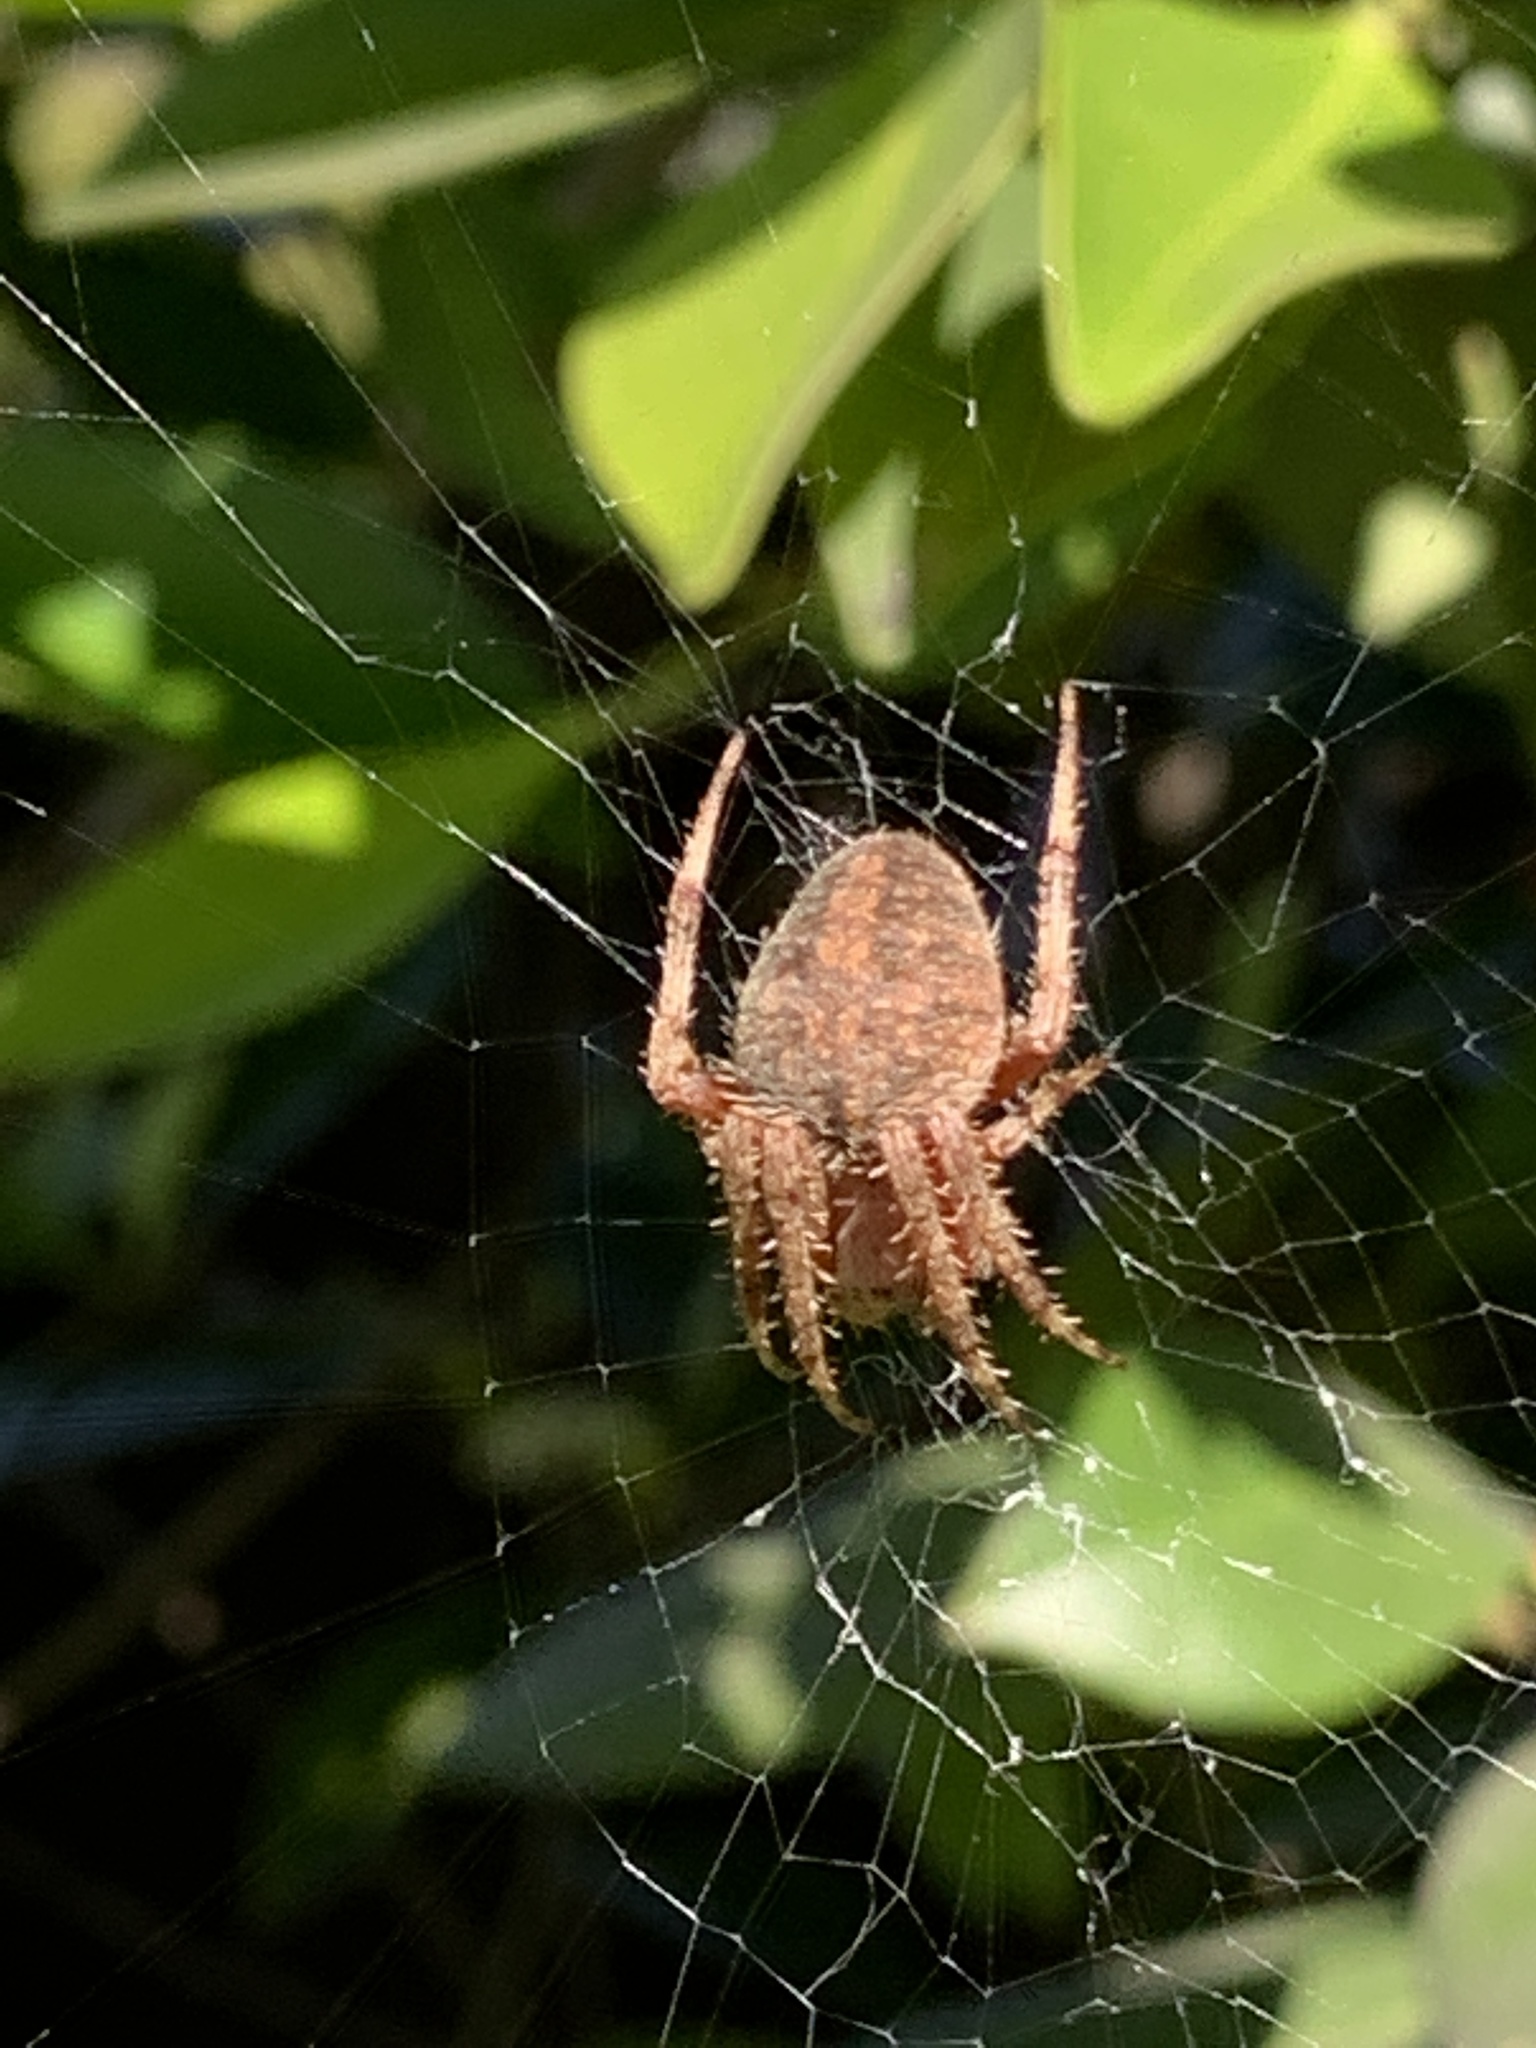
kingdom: Animalia
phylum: Arthropoda
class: Arachnida
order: Araneae
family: Araneidae
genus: Neoscona
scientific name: Neoscona crucifera
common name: Spotted orbweaver
